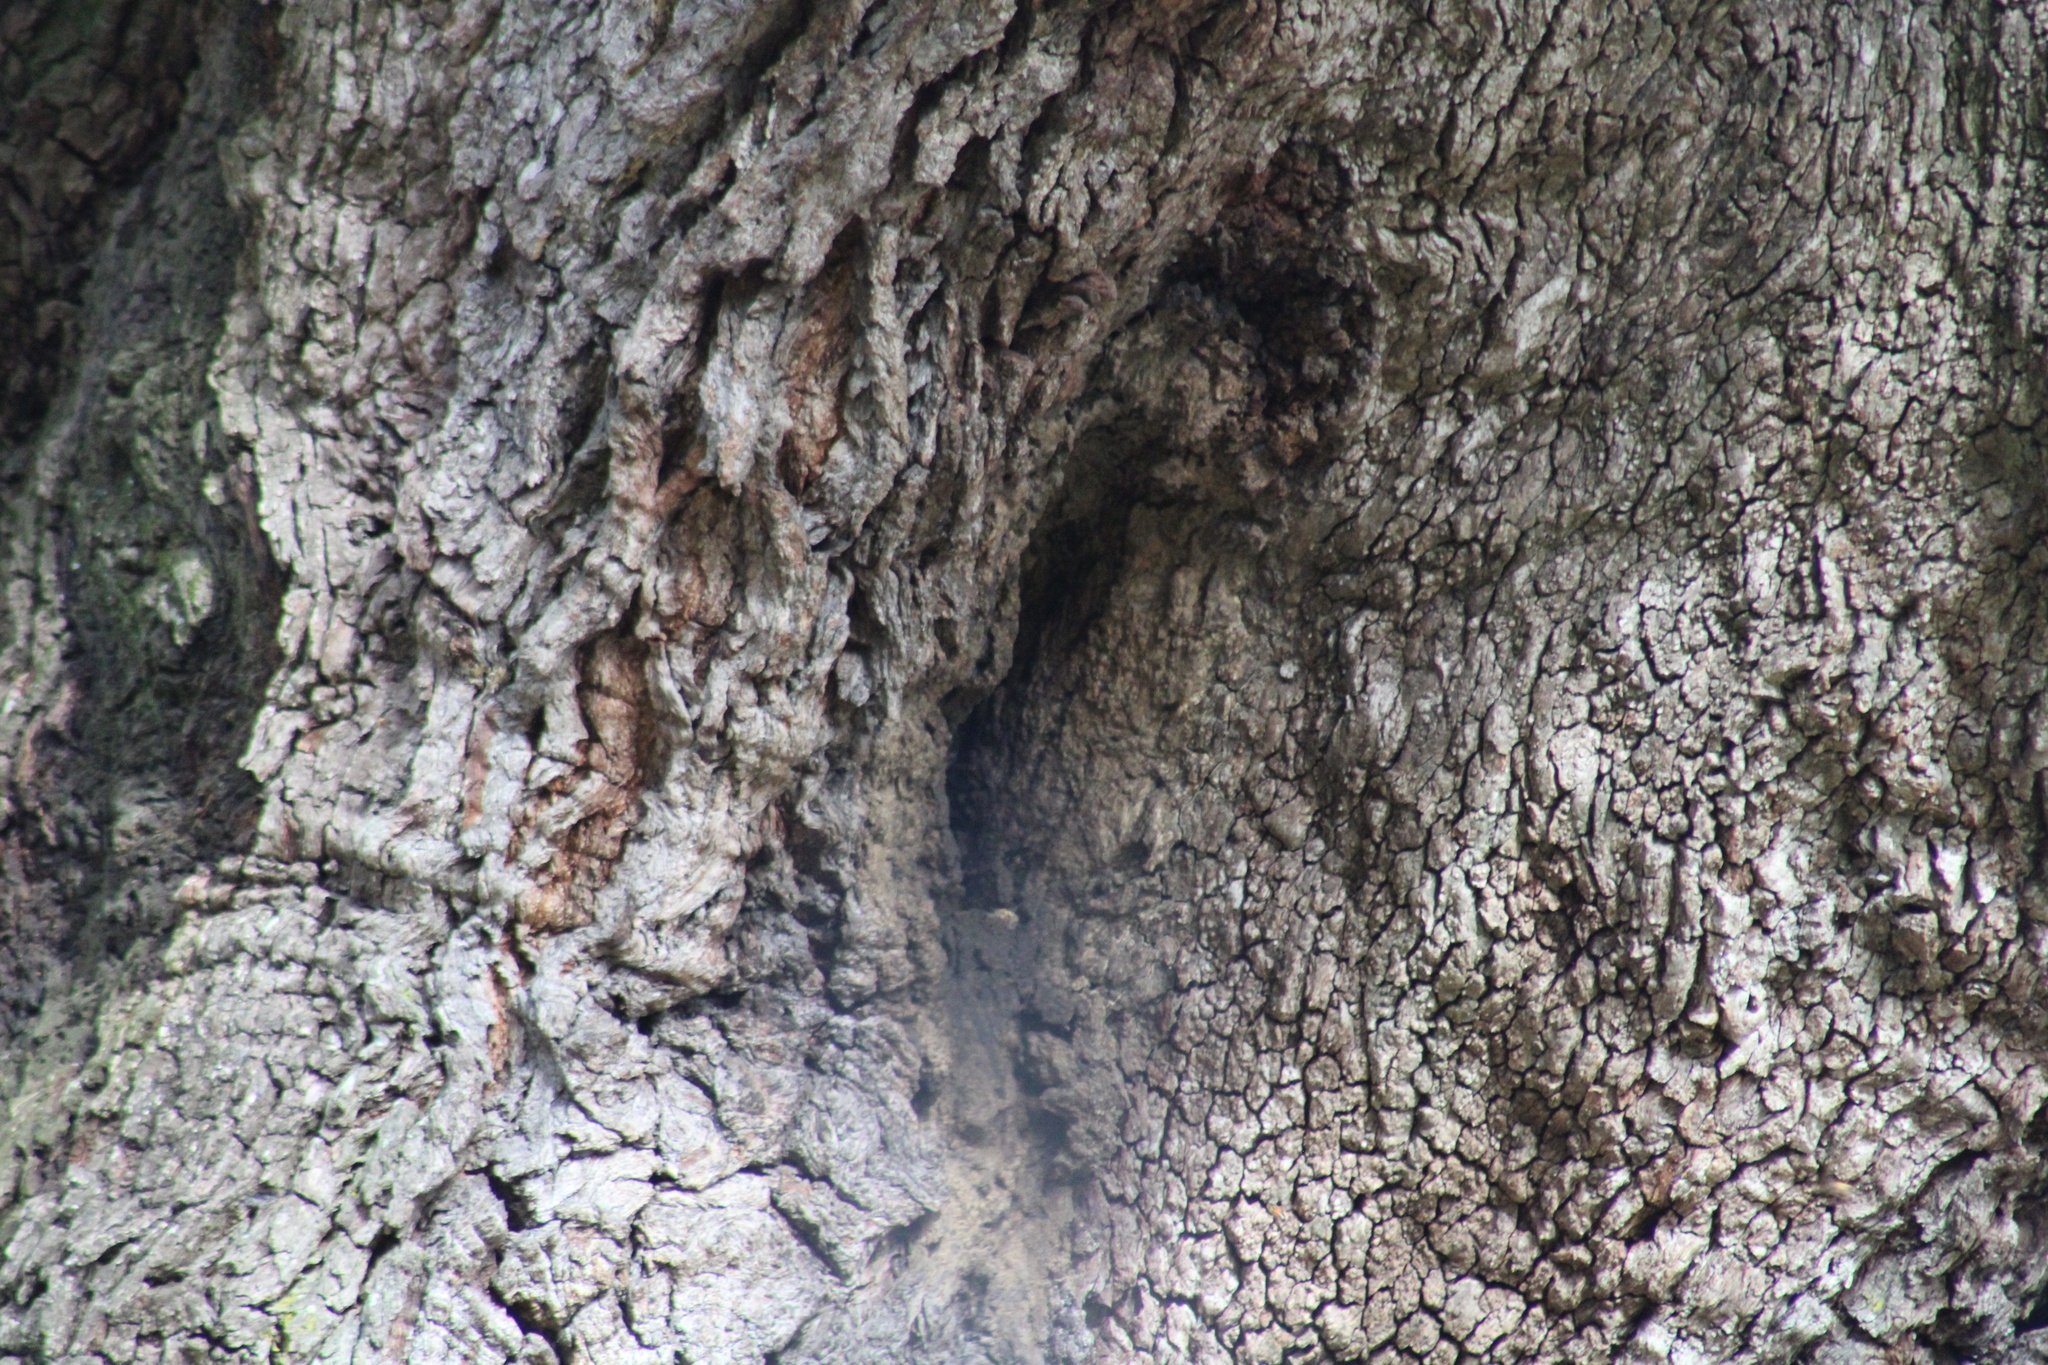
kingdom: Animalia
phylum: Arthropoda
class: Insecta
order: Hymenoptera
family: Apidae
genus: Apis
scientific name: Apis mellifera
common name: Honey bee
